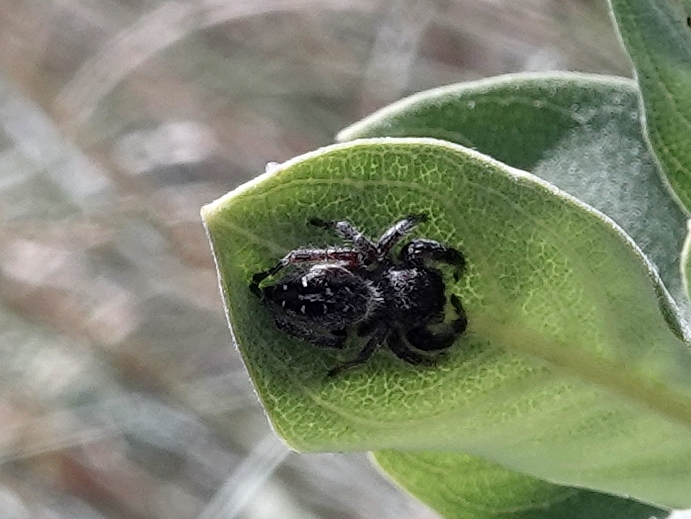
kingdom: Animalia
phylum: Arthropoda
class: Arachnida
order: Araneae
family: Salticidae
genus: Phidippus
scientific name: Phidippus purpuratus
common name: Marbled purple jumping spider
